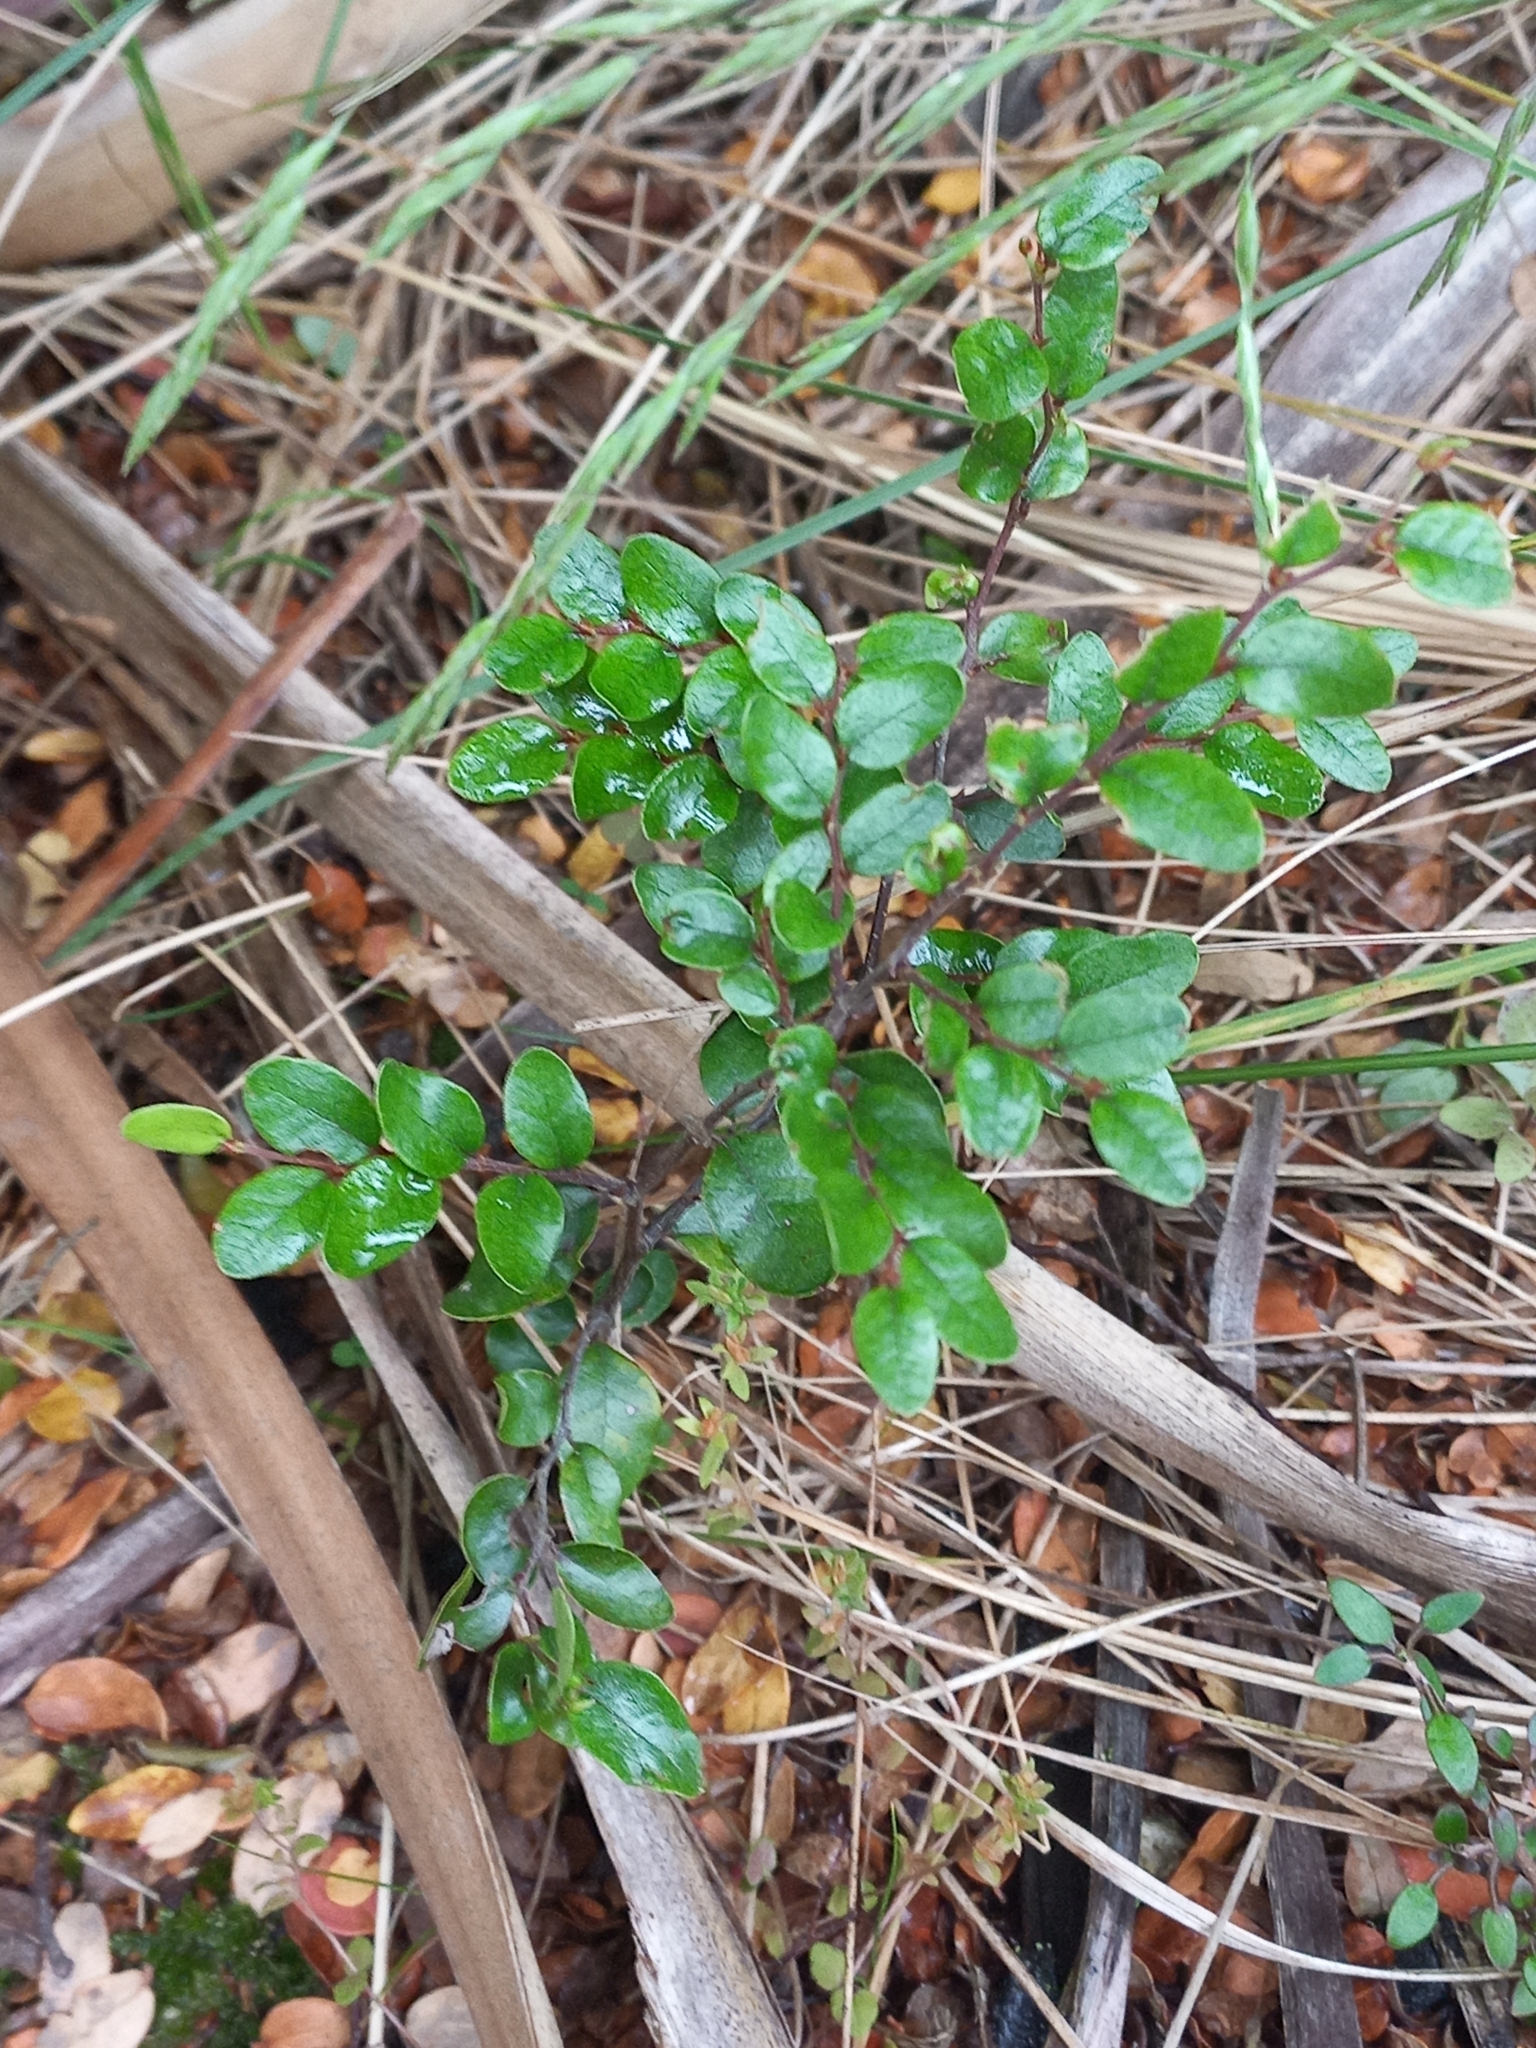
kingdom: Plantae
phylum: Tracheophyta
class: Magnoliopsida
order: Fagales
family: Nothofagaceae
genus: Nothofagus
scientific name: Nothofagus solandri
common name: Black beech
